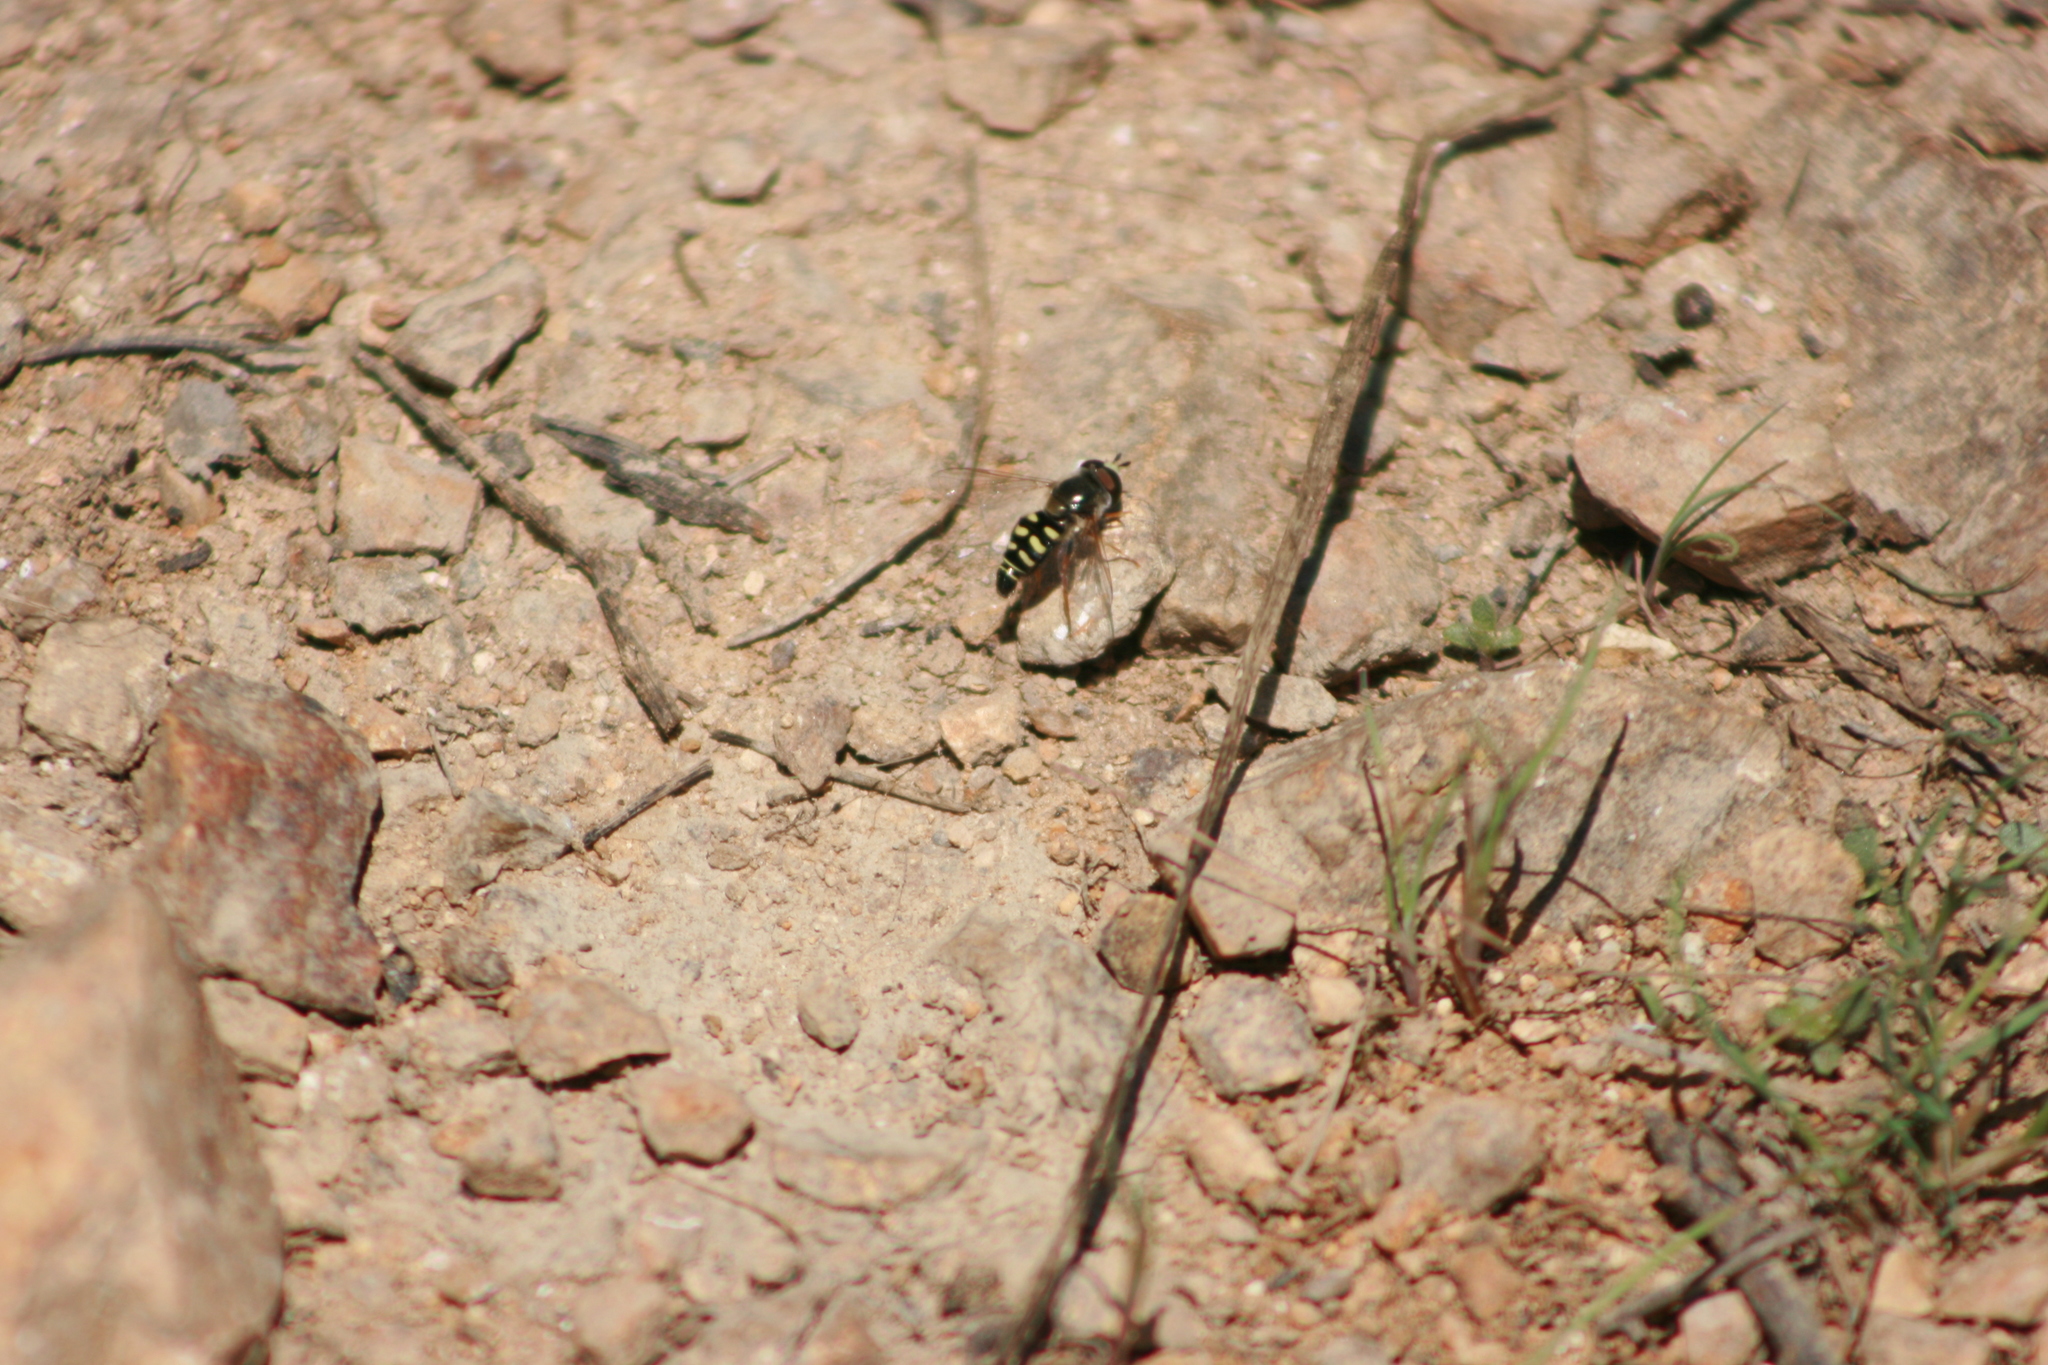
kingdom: Animalia
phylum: Arthropoda
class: Insecta
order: Diptera
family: Syrphidae
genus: Eupeodes
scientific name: Eupeodes volucris
